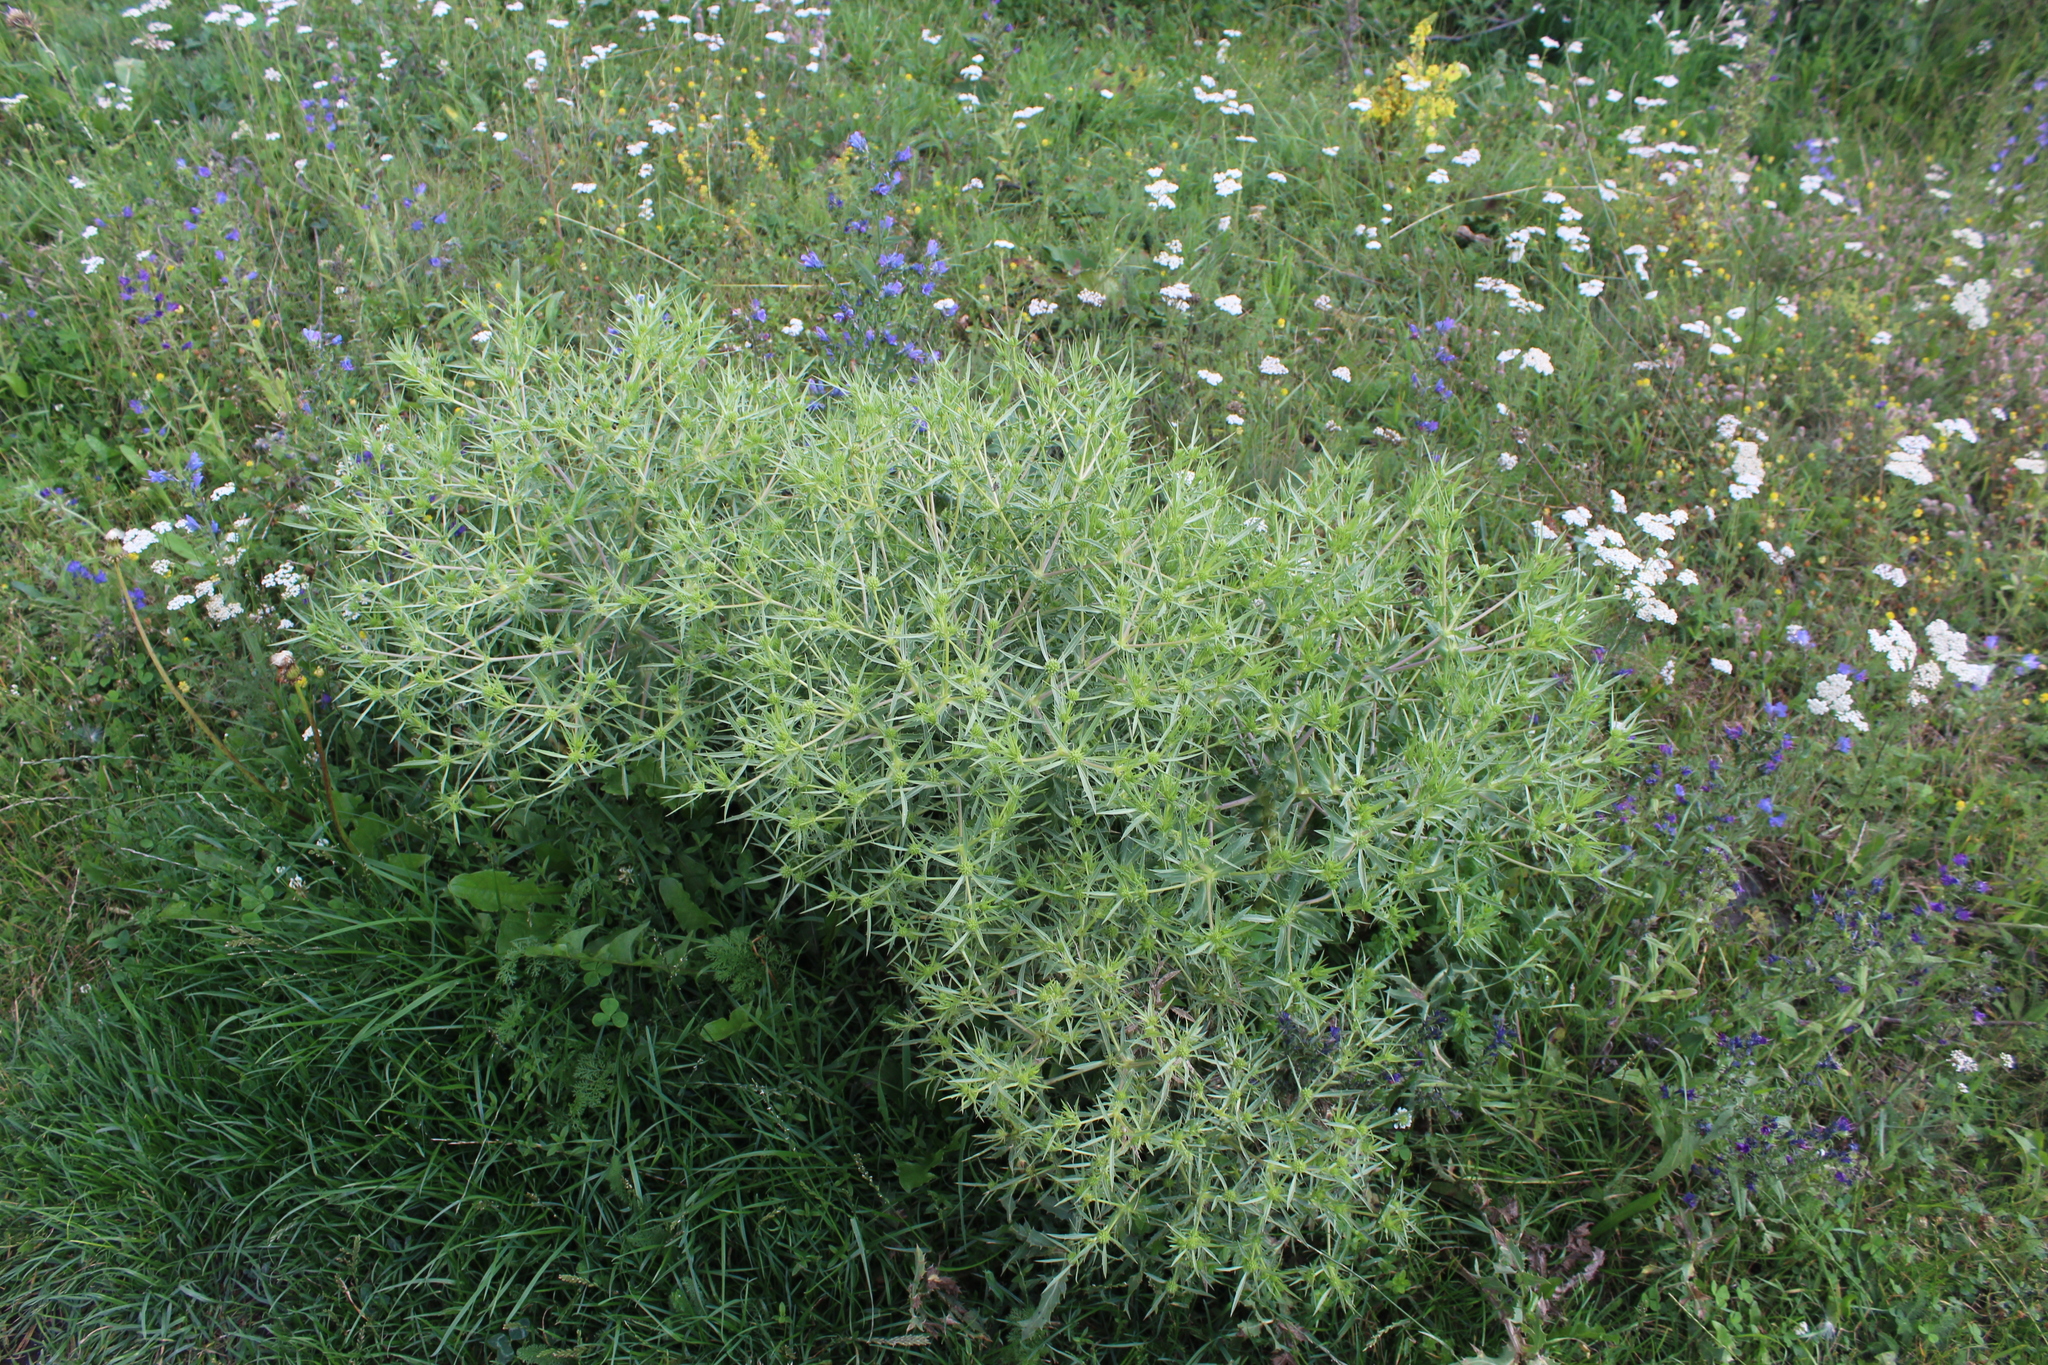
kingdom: Plantae
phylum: Tracheophyta
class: Magnoliopsida
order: Apiales
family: Apiaceae
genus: Eryngium
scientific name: Eryngium campestre
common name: Field eryngo
